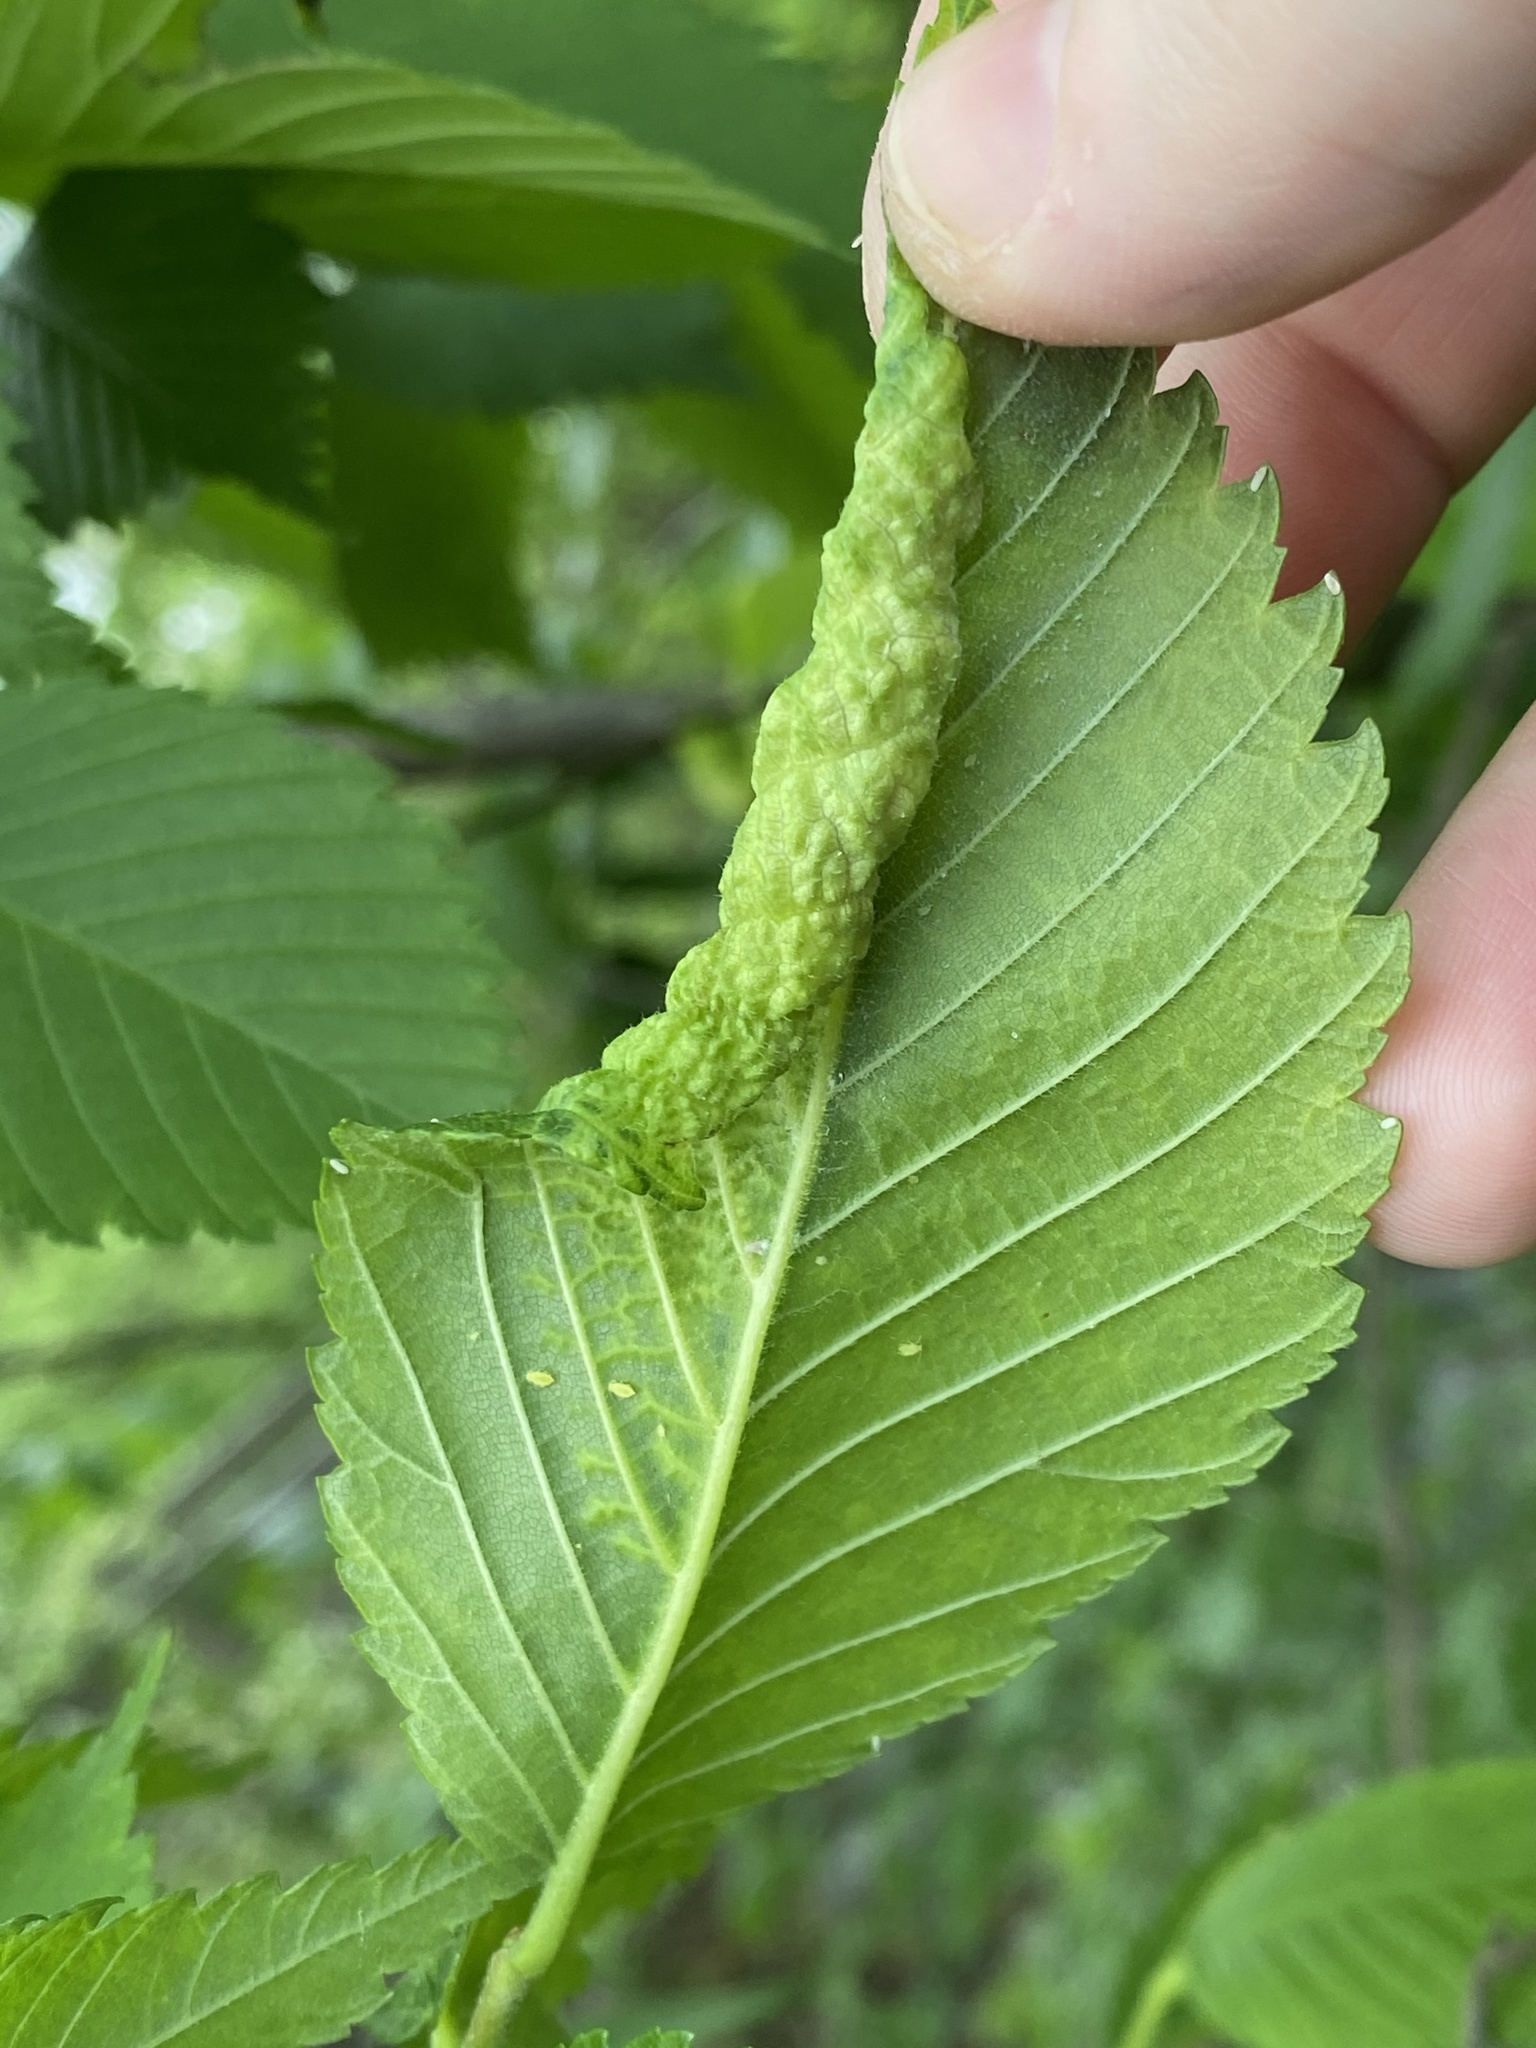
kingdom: Animalia
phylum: Arthropoda
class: Insecta
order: Hemiptera
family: Aphididae
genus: Eriosoma
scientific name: Eriosoma americanum
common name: Woolly elm aphid
